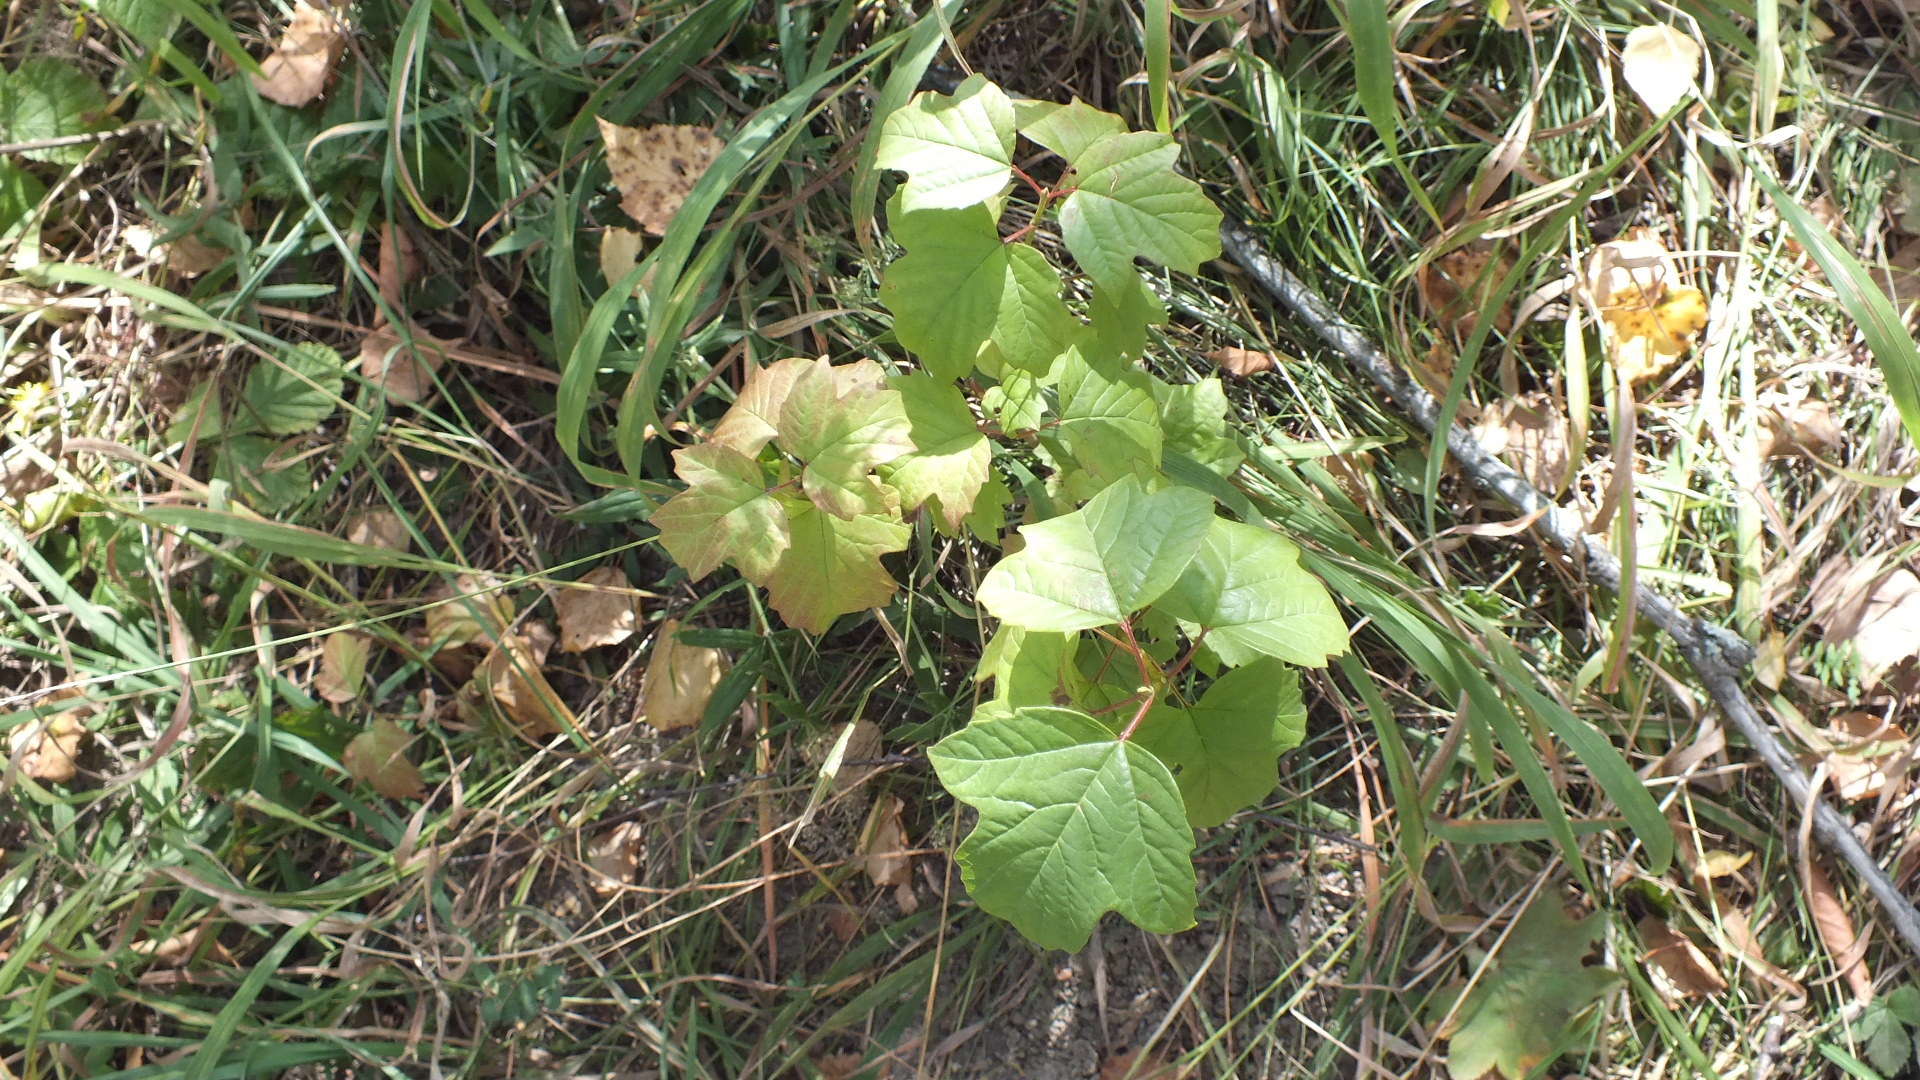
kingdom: Plantae
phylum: Tracheophyta
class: Magnoliopsida
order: Dipsacales
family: Viburnaceae
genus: Viburnum
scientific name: Viburnum opulus
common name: Guelder-rose
